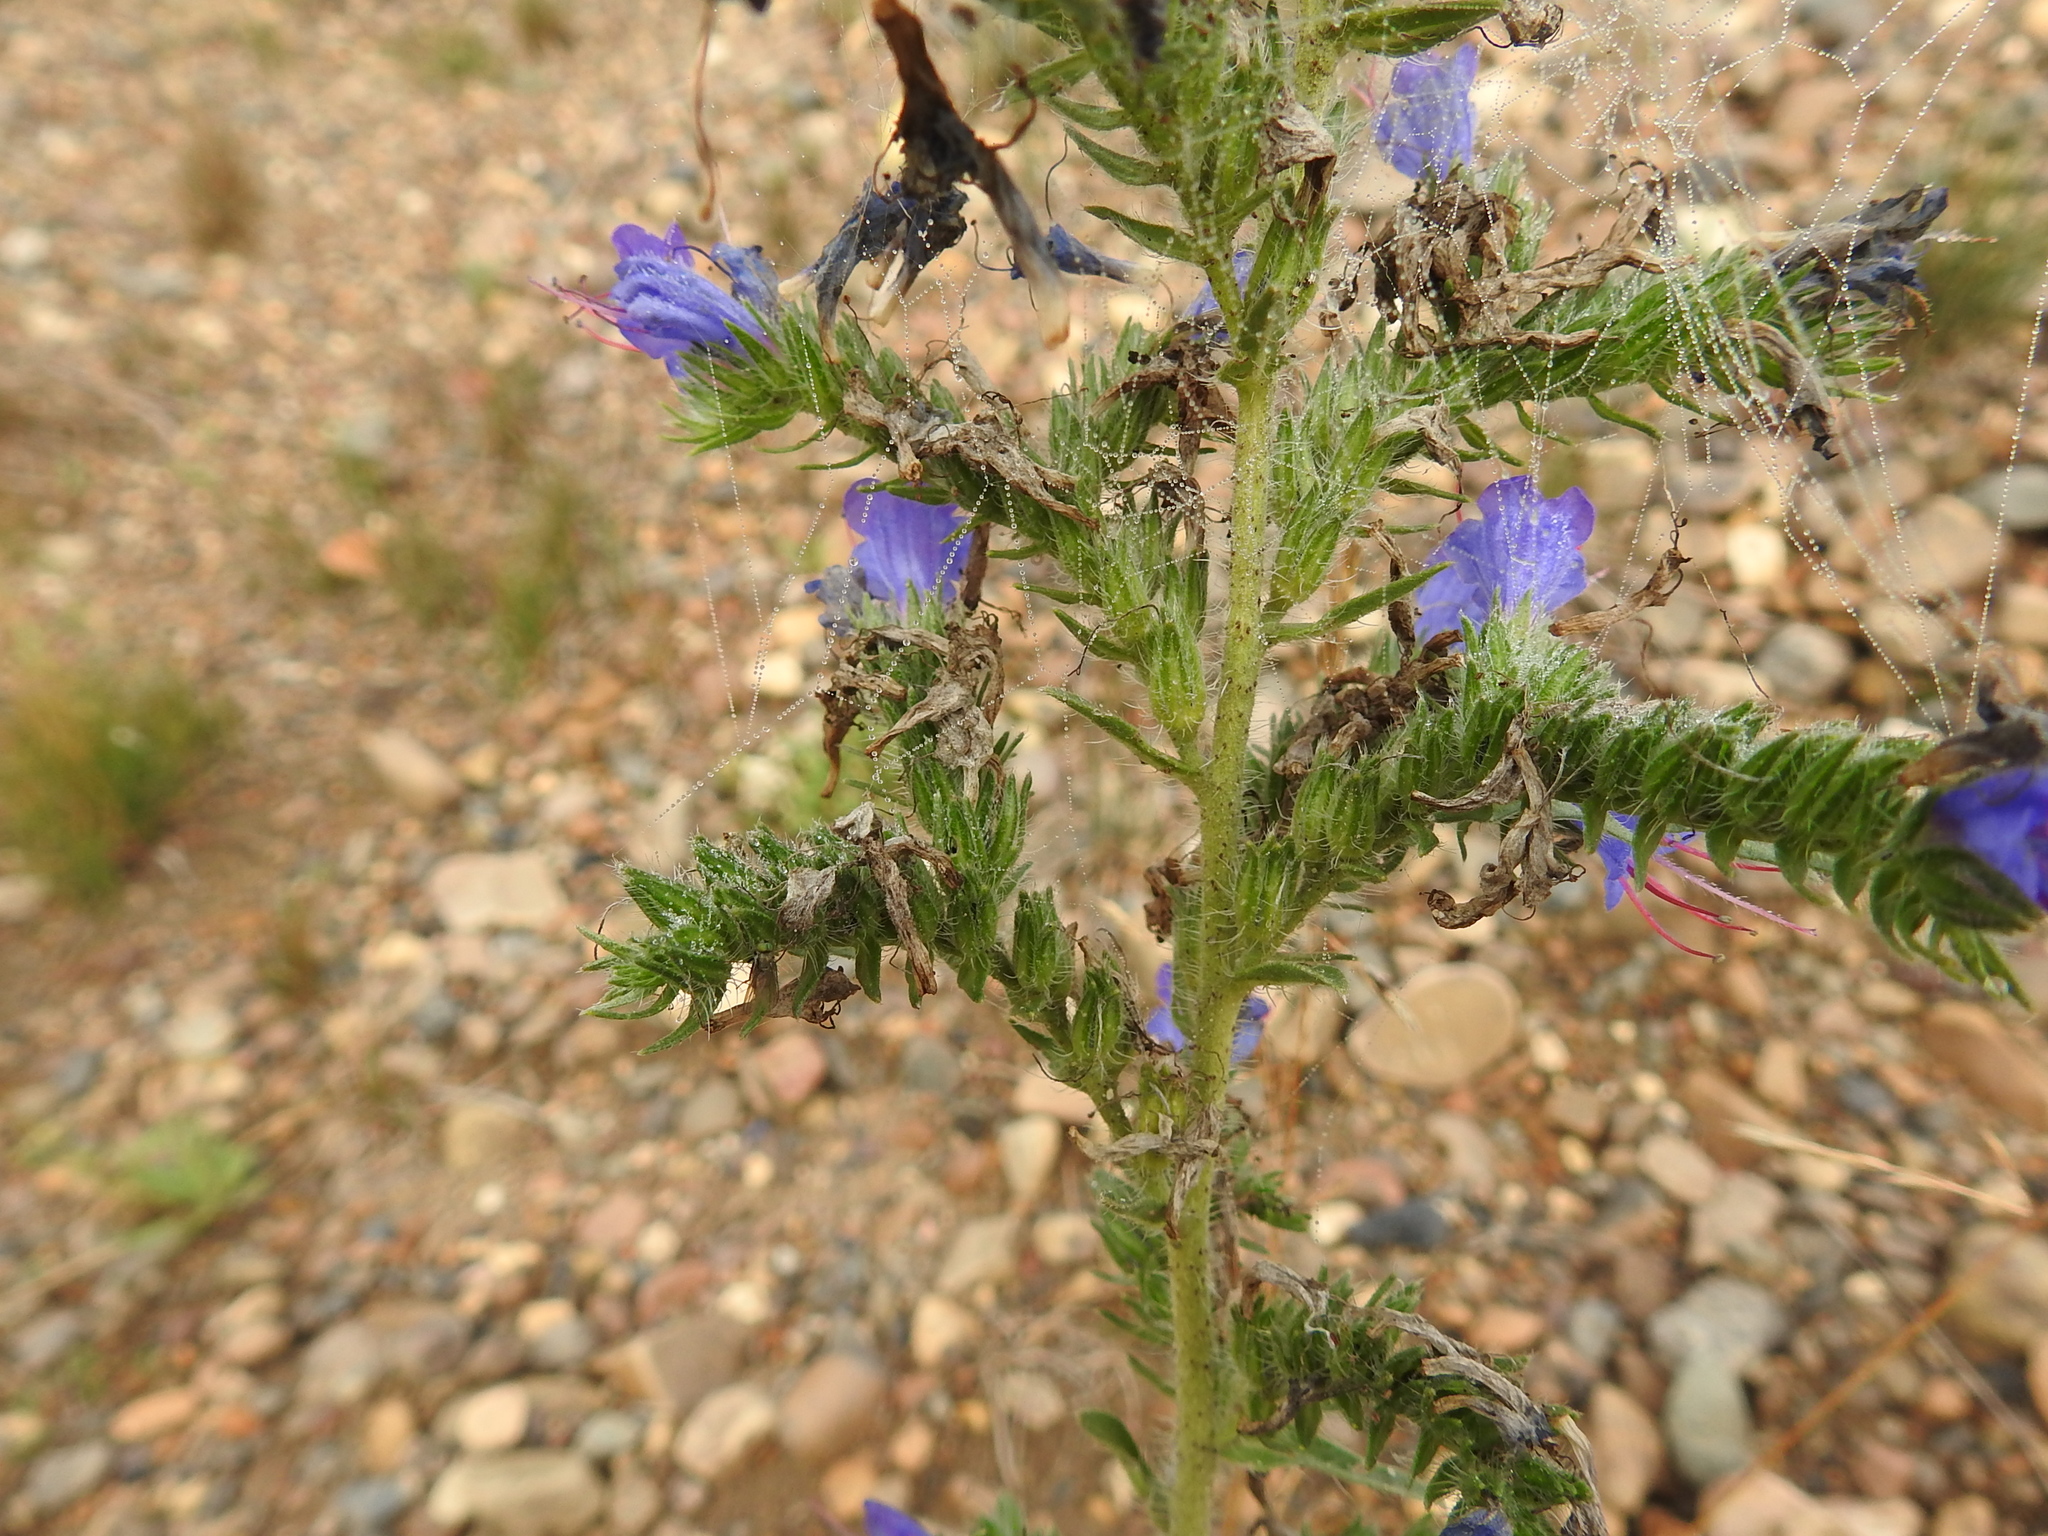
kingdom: Plantae
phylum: Tracheophyta
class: Magnoliopsida
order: Boraginales
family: Boraginaceae
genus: Echium
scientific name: Echium vulgare
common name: Common viper's bugloss
